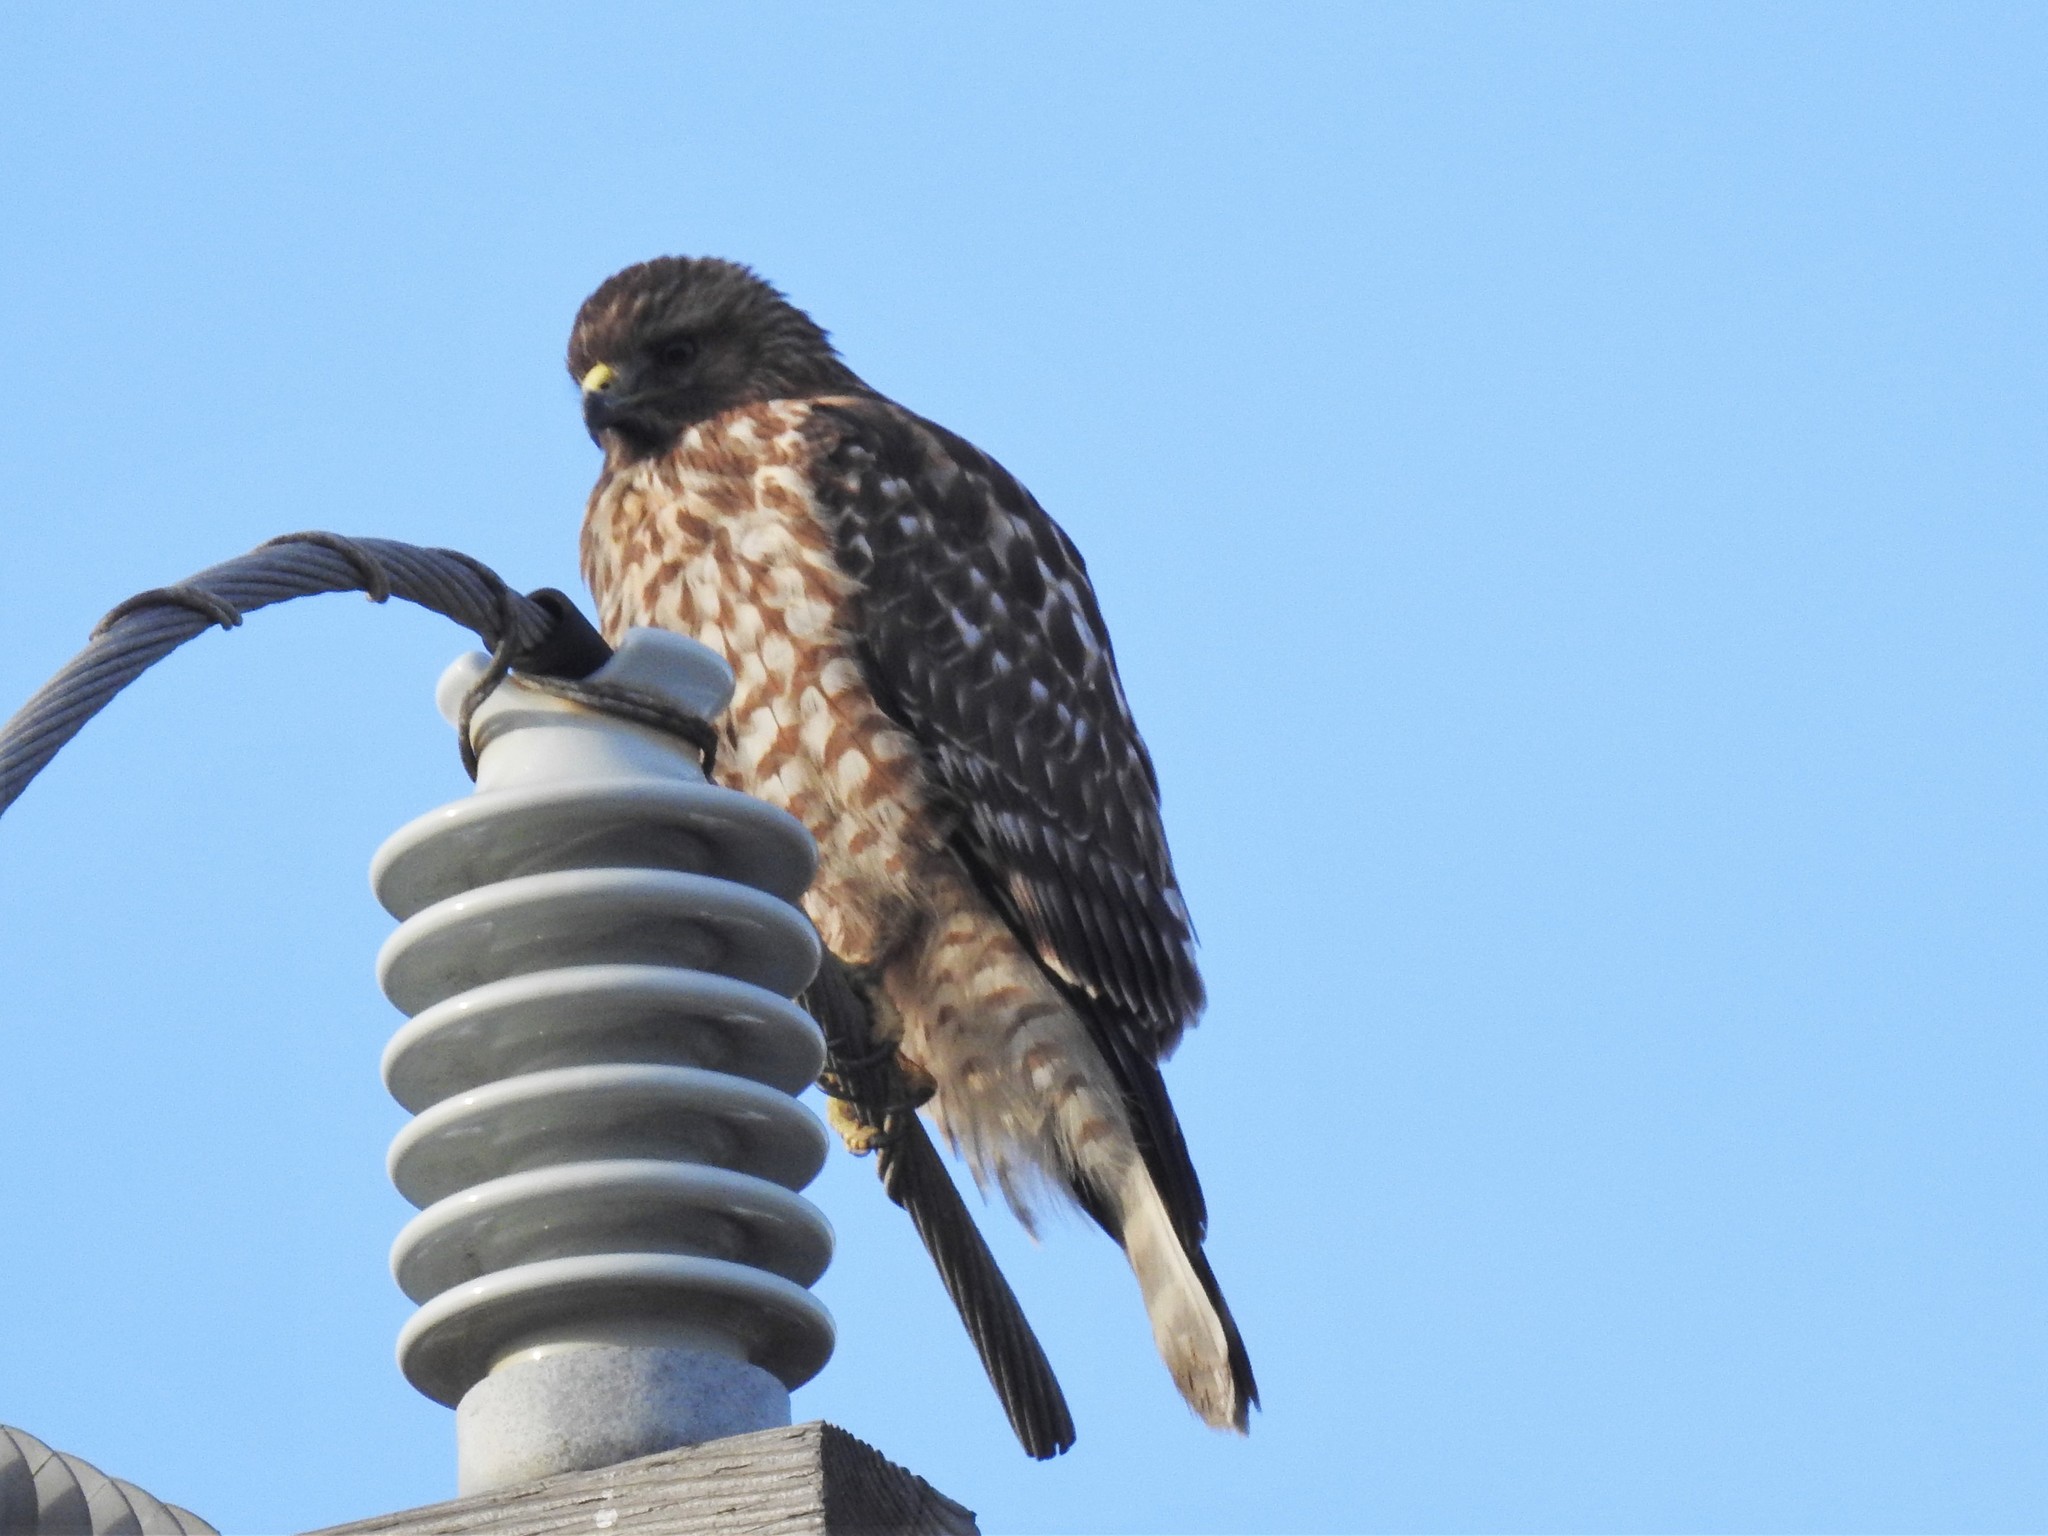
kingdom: Animalia
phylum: Chordata
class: Aves
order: Accipitriformes
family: Accipitridae
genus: Buteo
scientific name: Buteo lineatus
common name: Red-shouldered hawk
